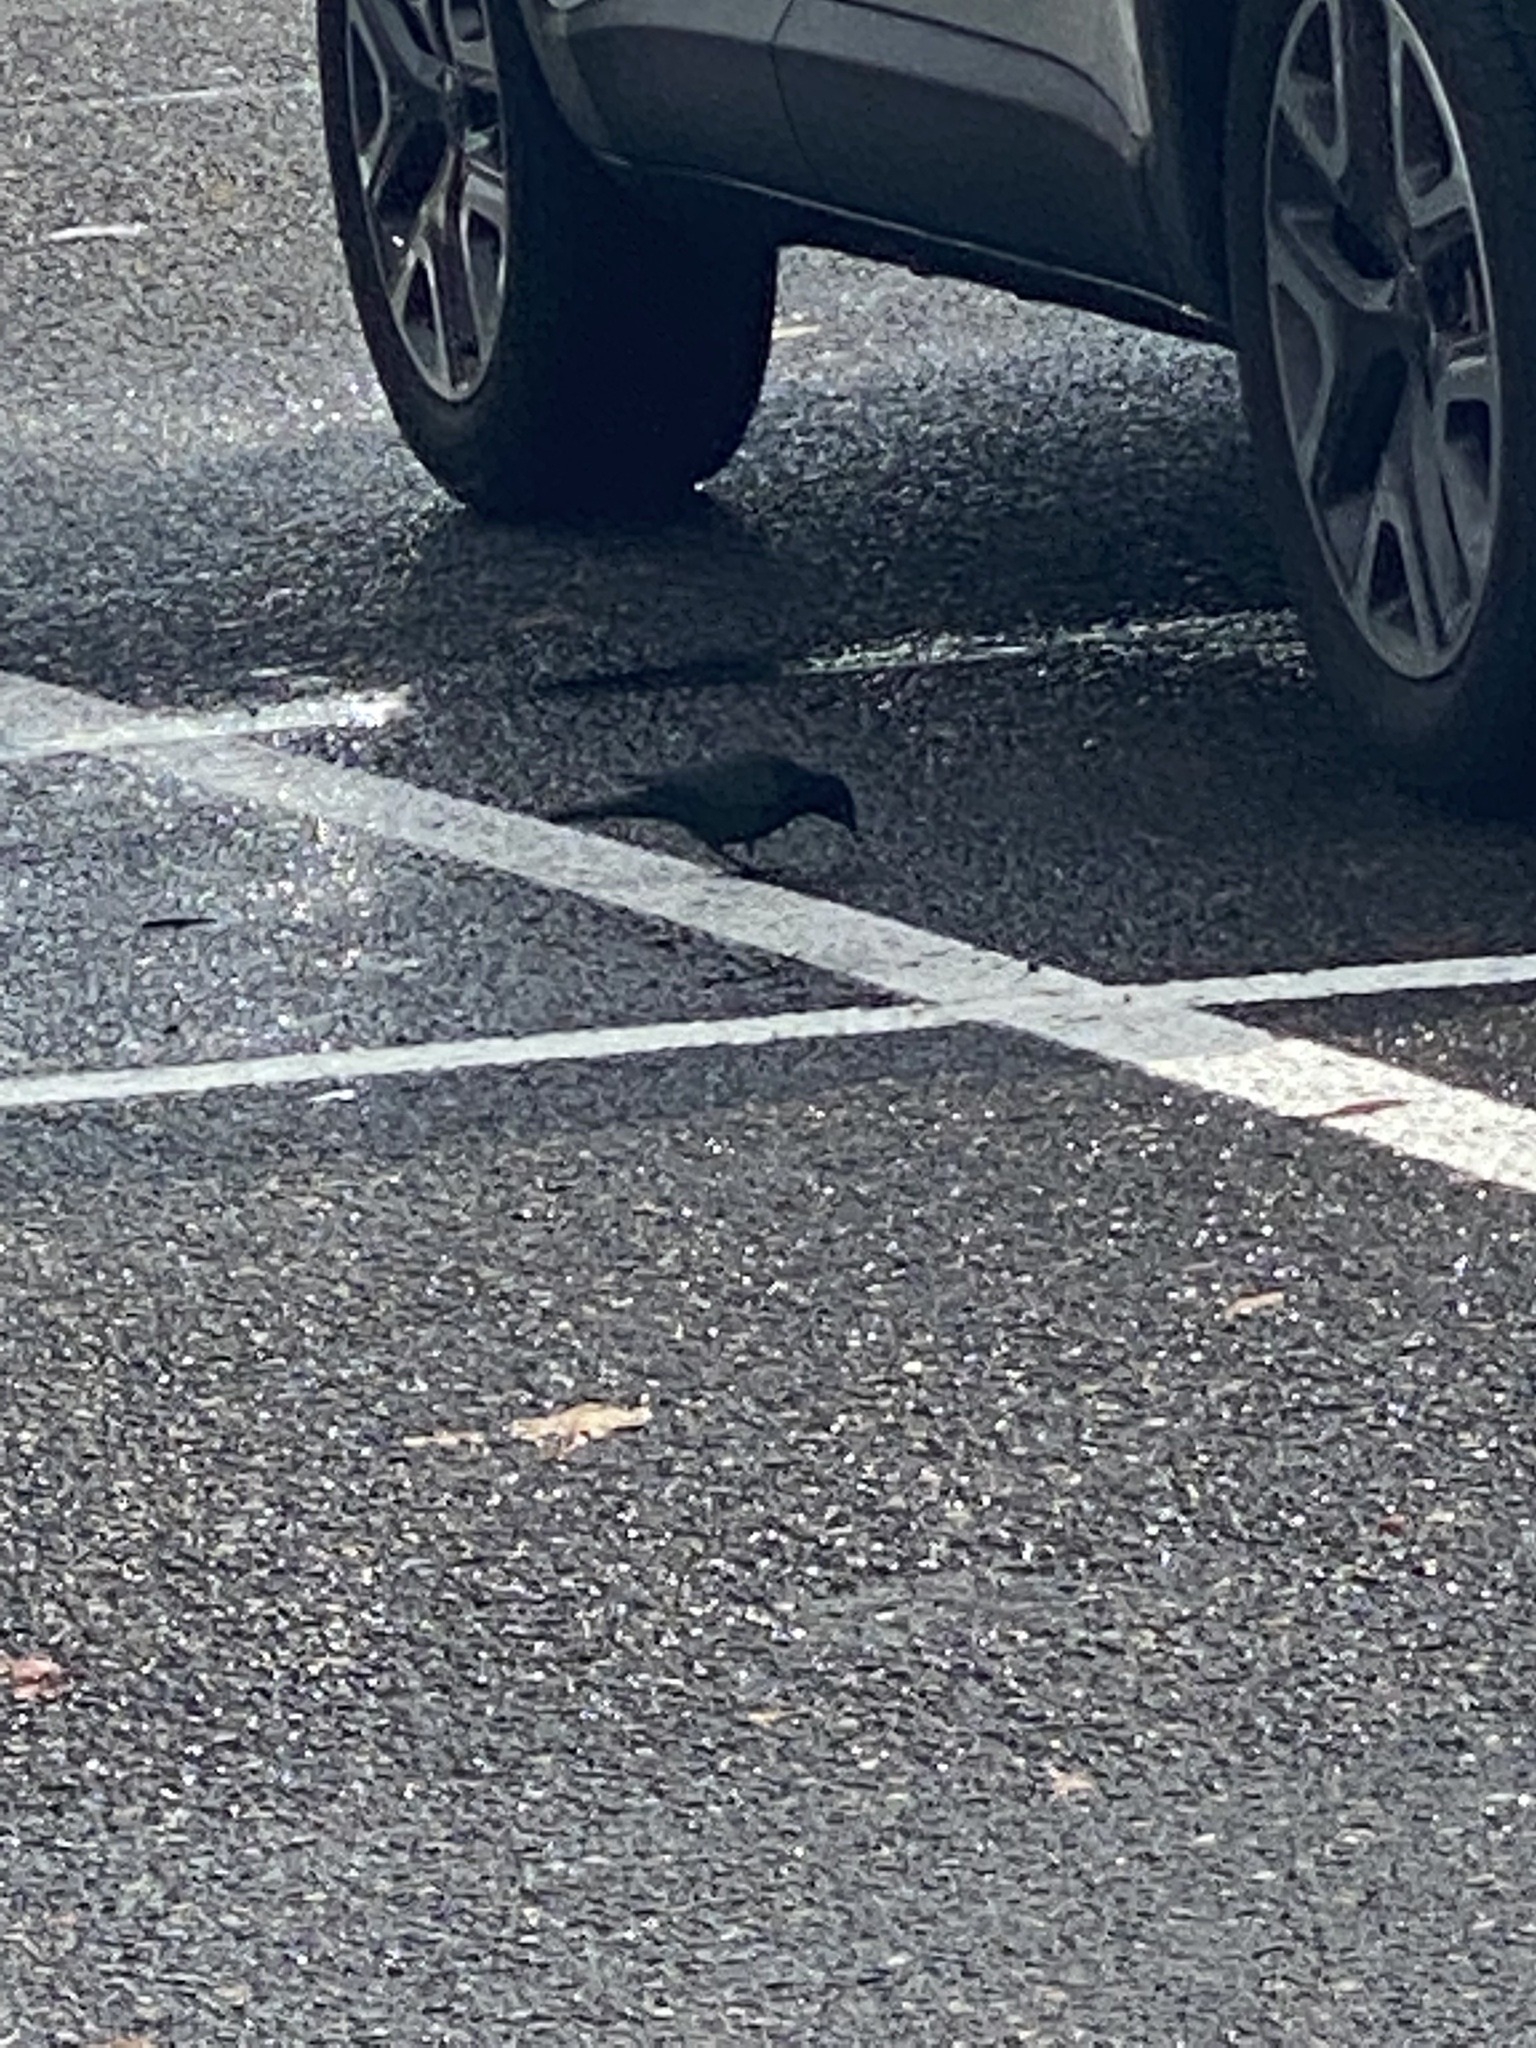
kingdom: Animalia
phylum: Chordata
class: Aves
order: Passeriformes
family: Icteridae
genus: Euphagus
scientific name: Euphagus cyanocephalus
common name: Brewer's blackbird
